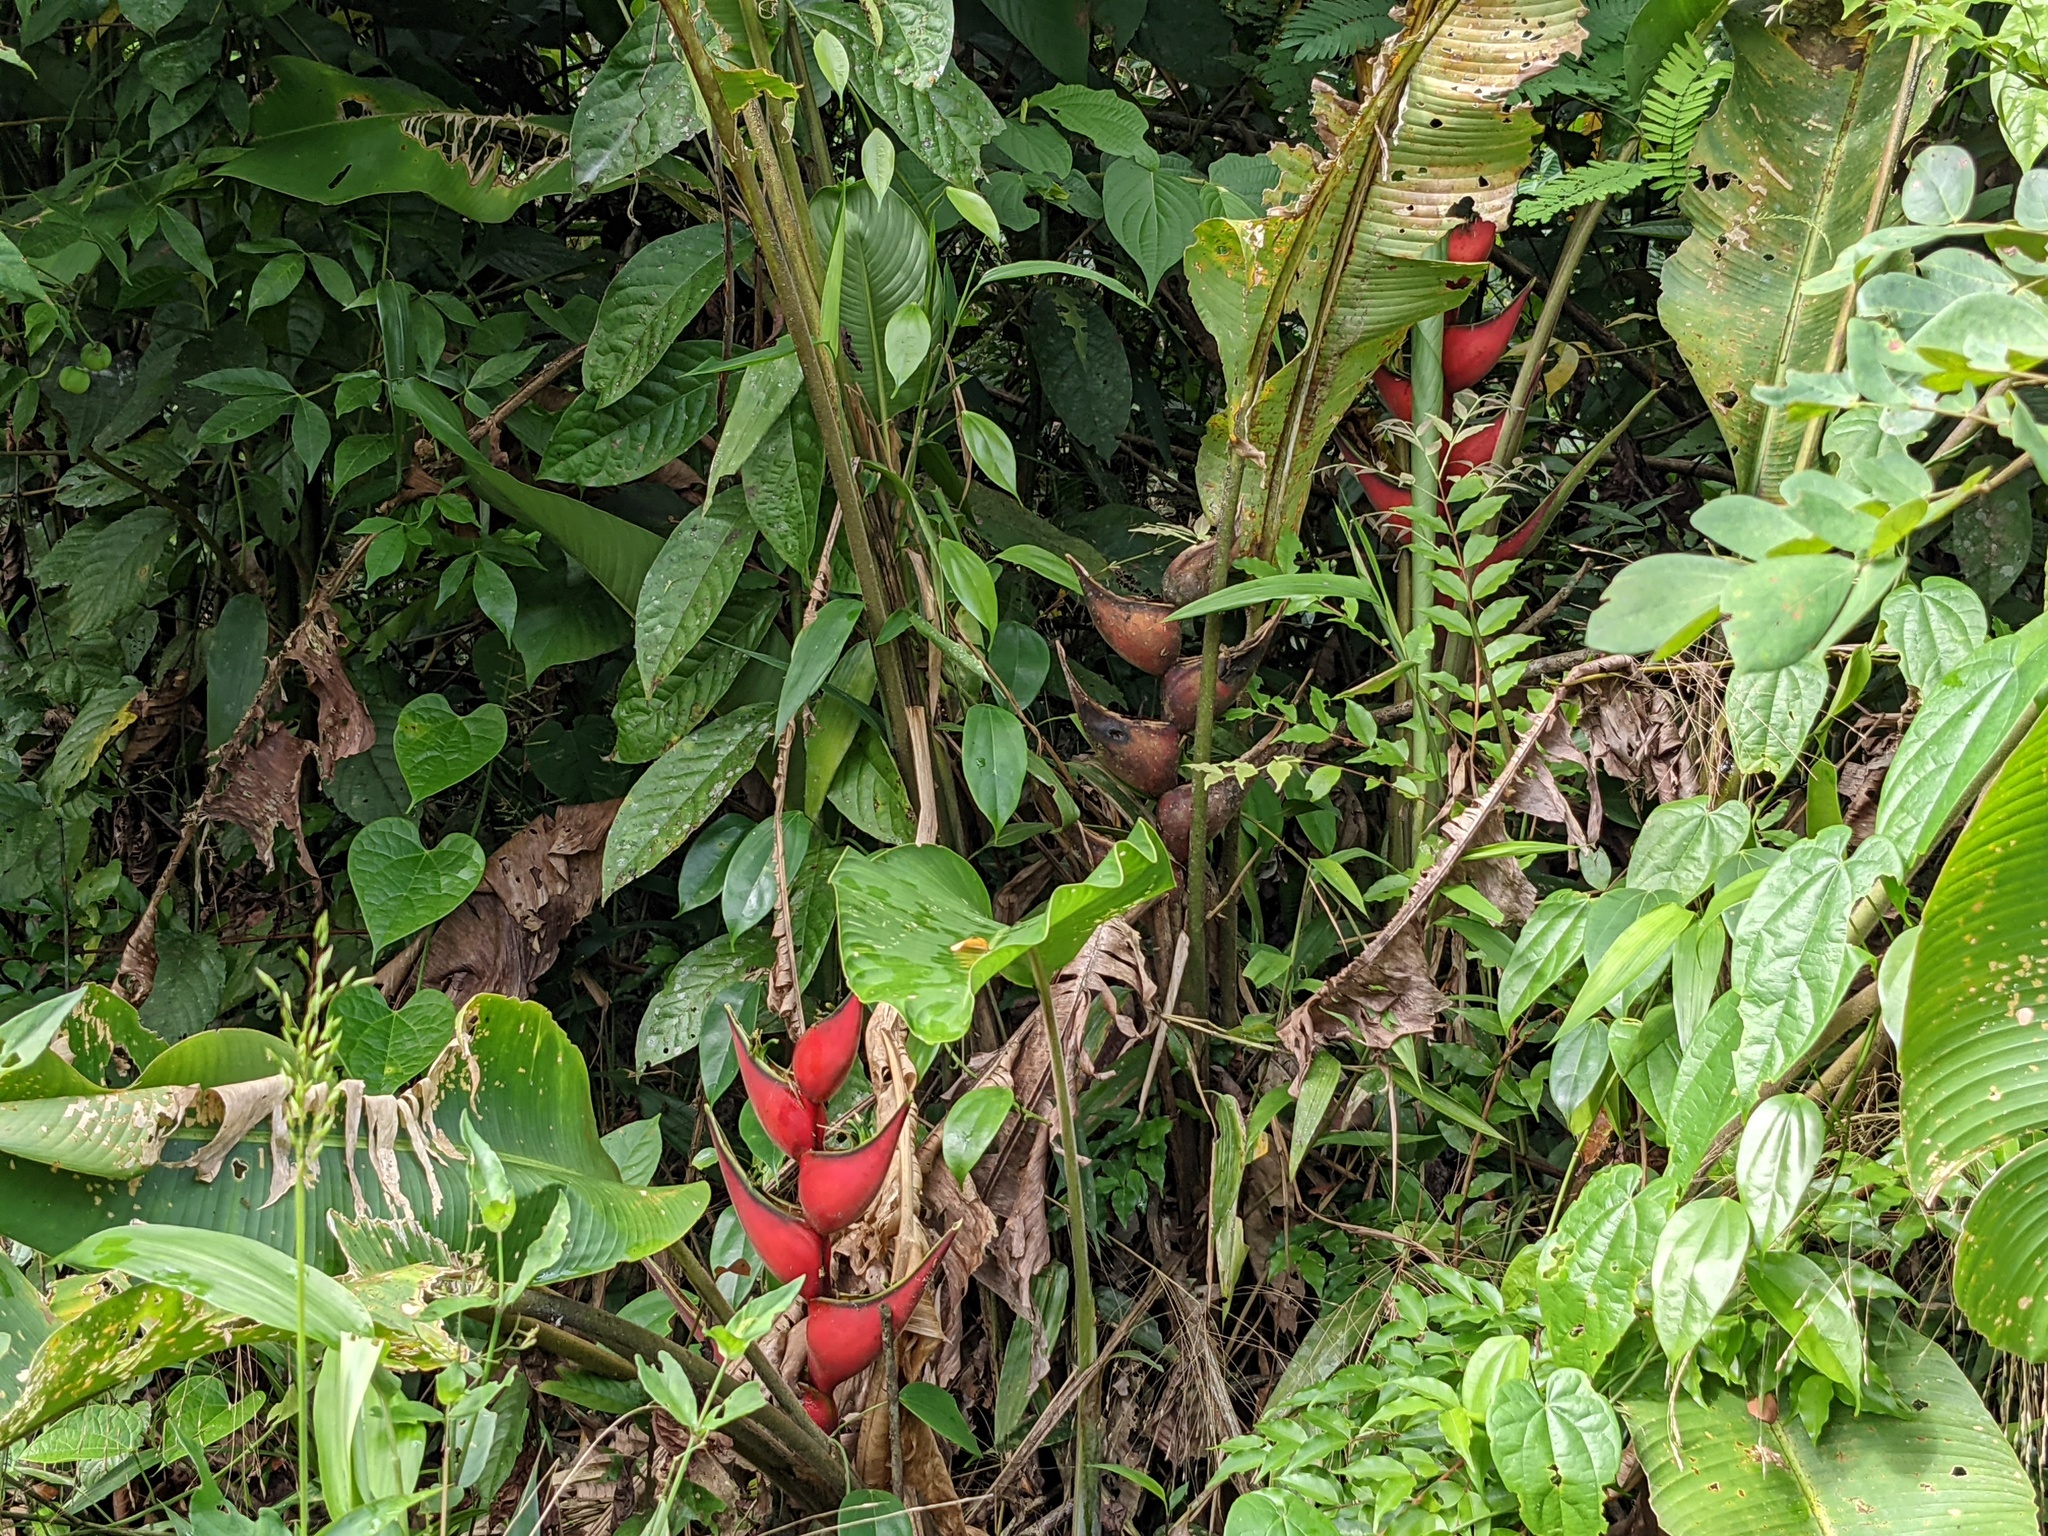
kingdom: Plantae
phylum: Tracheophyta
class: Liliopsida
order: Zingiberales
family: Heliconiaceae
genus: Heliconia
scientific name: Heliconia orthotricha
